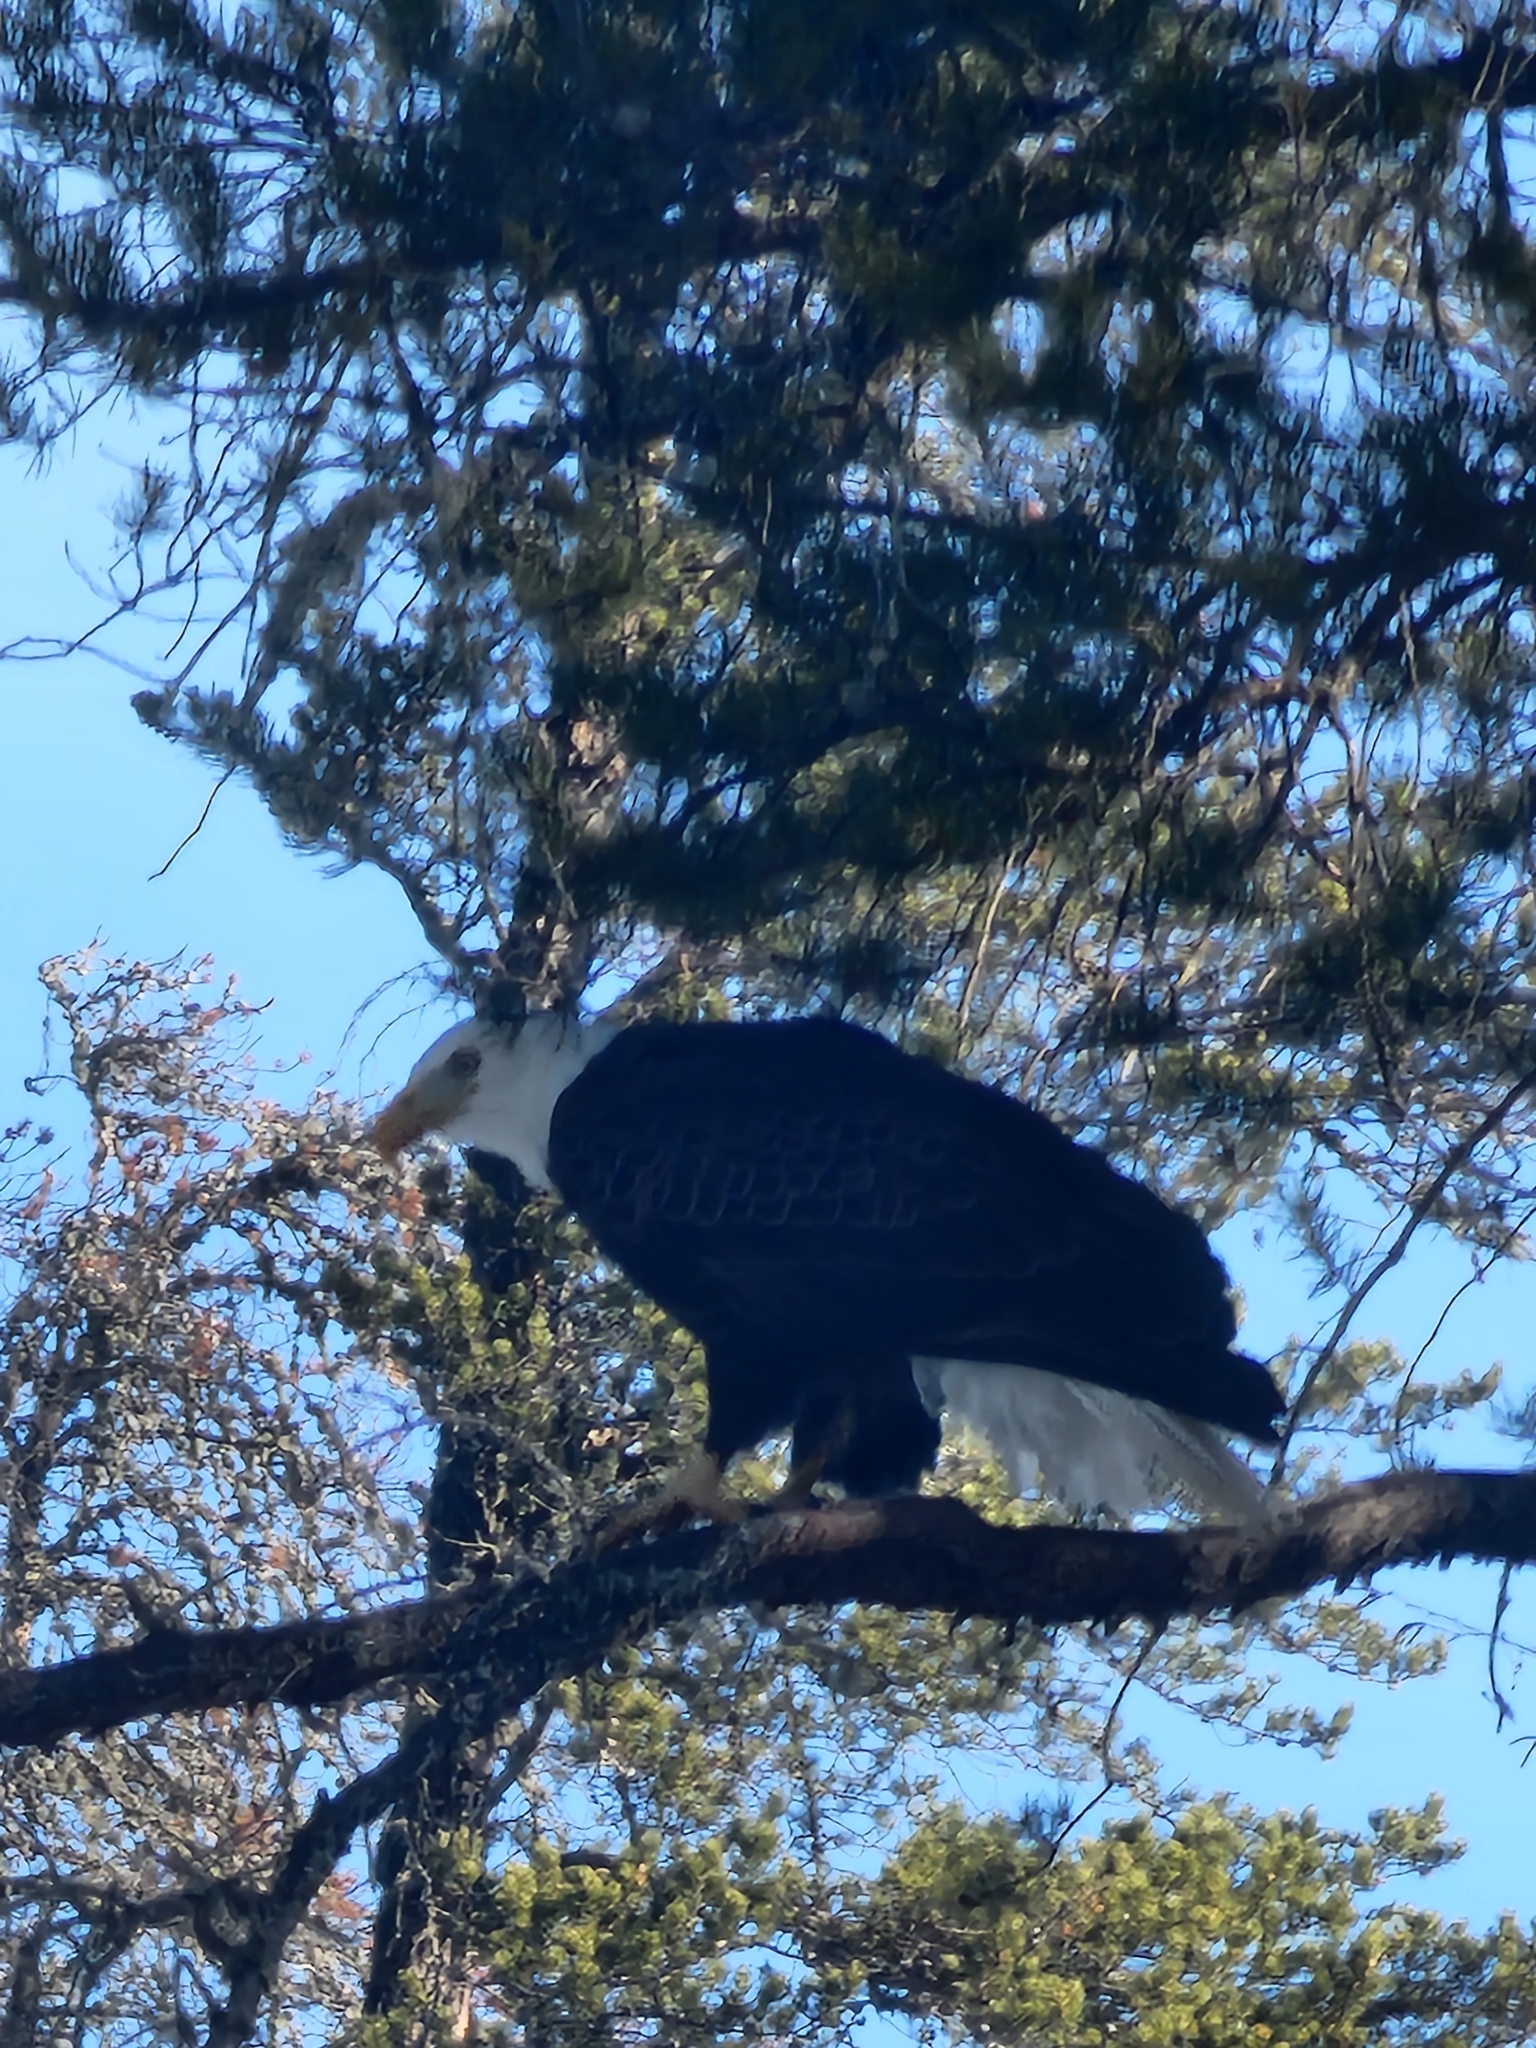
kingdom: Animalia
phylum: Chordata
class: Aves
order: Accipitriformes
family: Accipitridae
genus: Haliaeetus
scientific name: Haliaeetus leucocephalus
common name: Bald eagle
